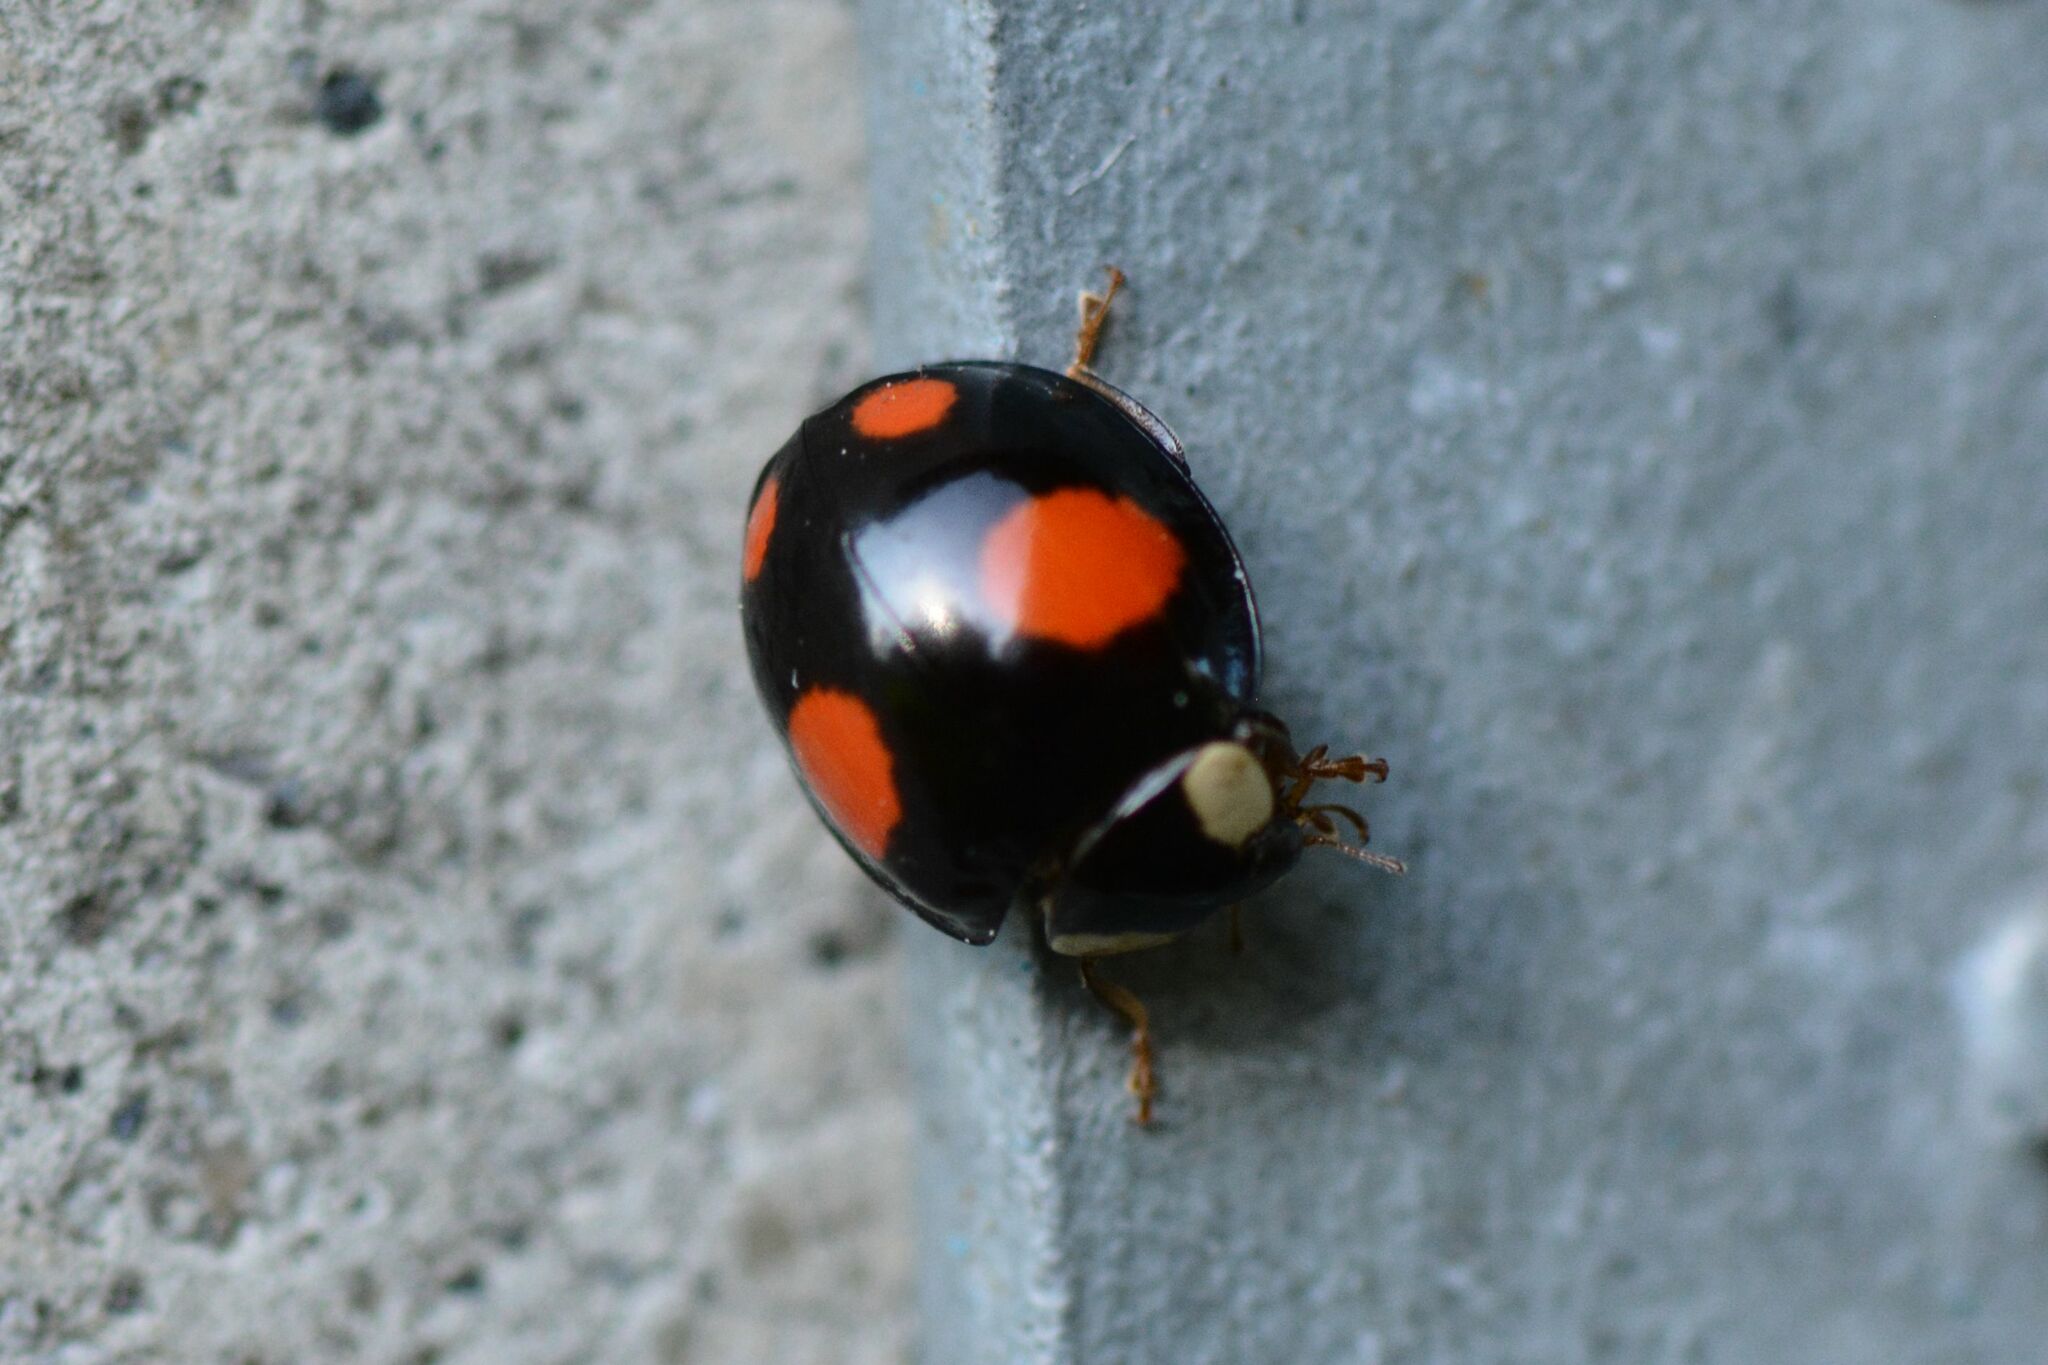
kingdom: Animalia
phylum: Arthropoda
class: Insecta
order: Coleoptera
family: Coccinellidae
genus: Harmonia
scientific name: Harmonia axyridis
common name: Harlequin ladybird
